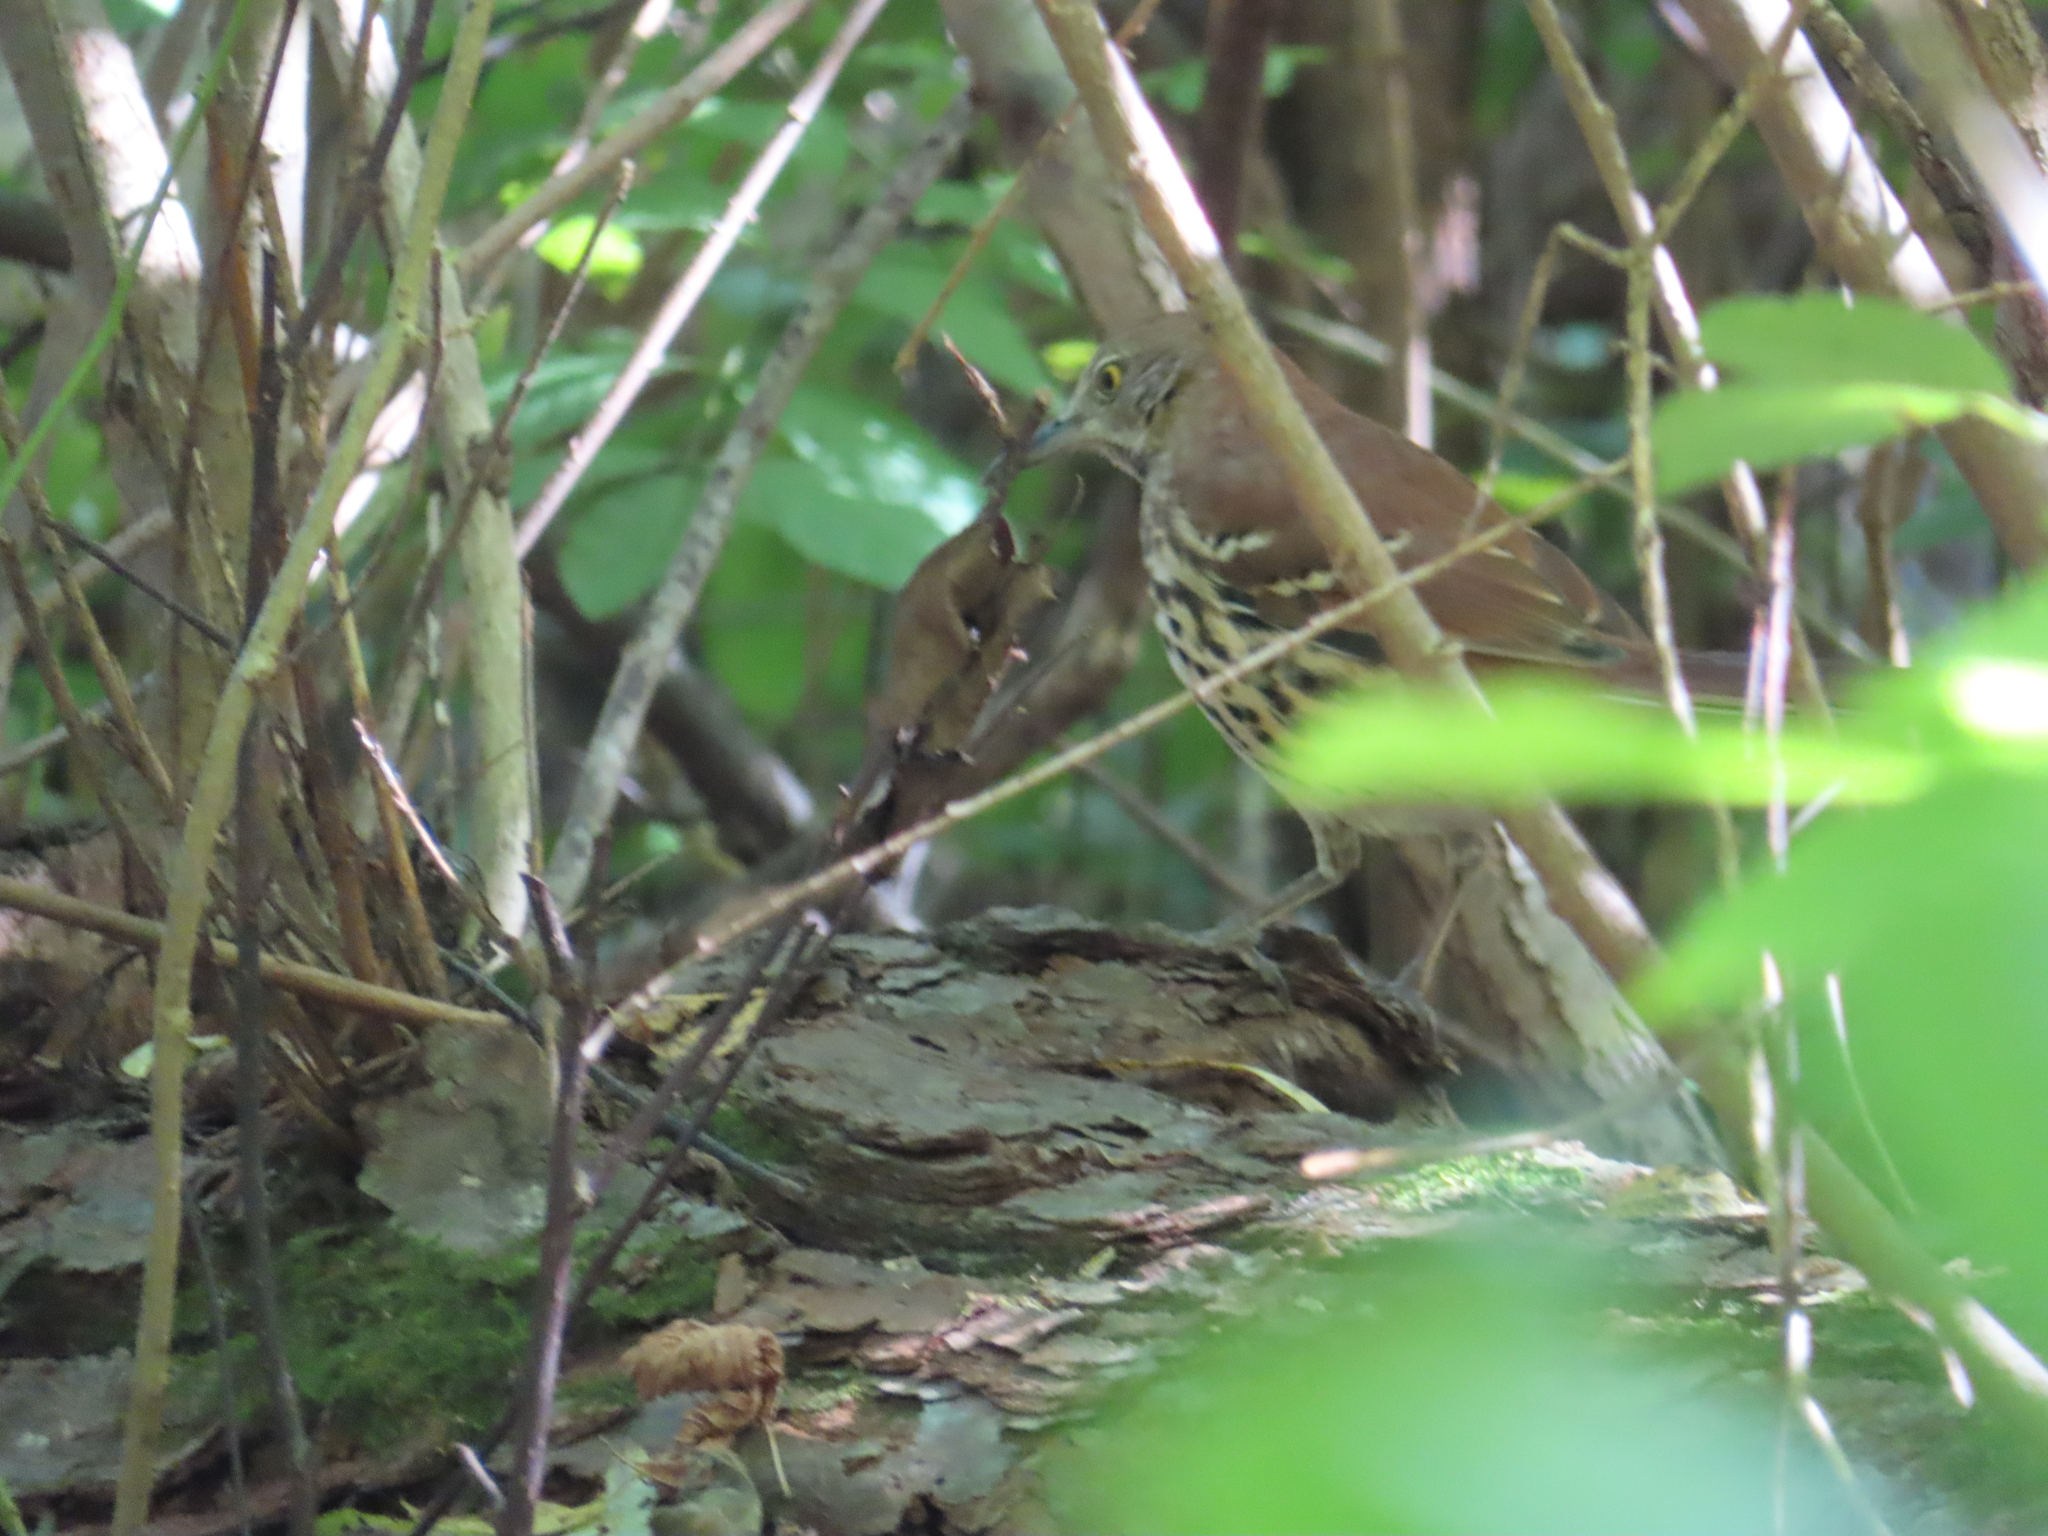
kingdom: Animalia
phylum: Chordata
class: Aves
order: Passeriformes
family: Mimidae
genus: Toxostoma
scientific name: Toxostoma rufum
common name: Brown thrasher
